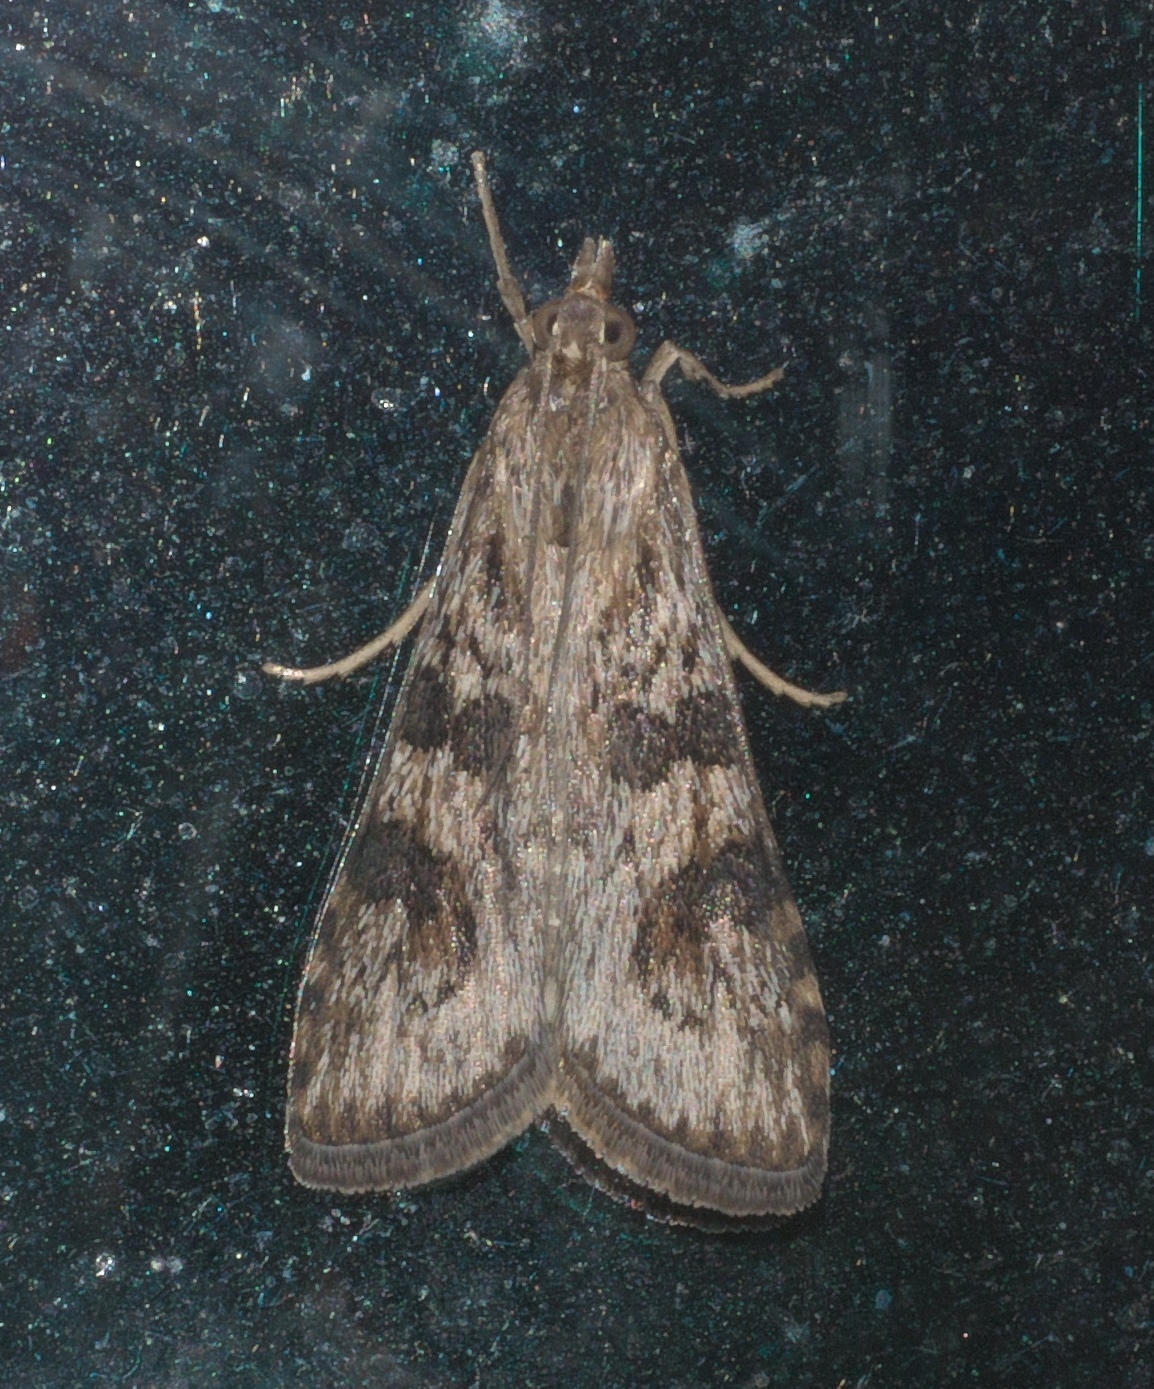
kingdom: Animalia
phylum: Arthropoda
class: Insecta
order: Lepidoptera
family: Crambidae
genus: Nomophila
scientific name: Nomophila nearctica
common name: American rush veneer
